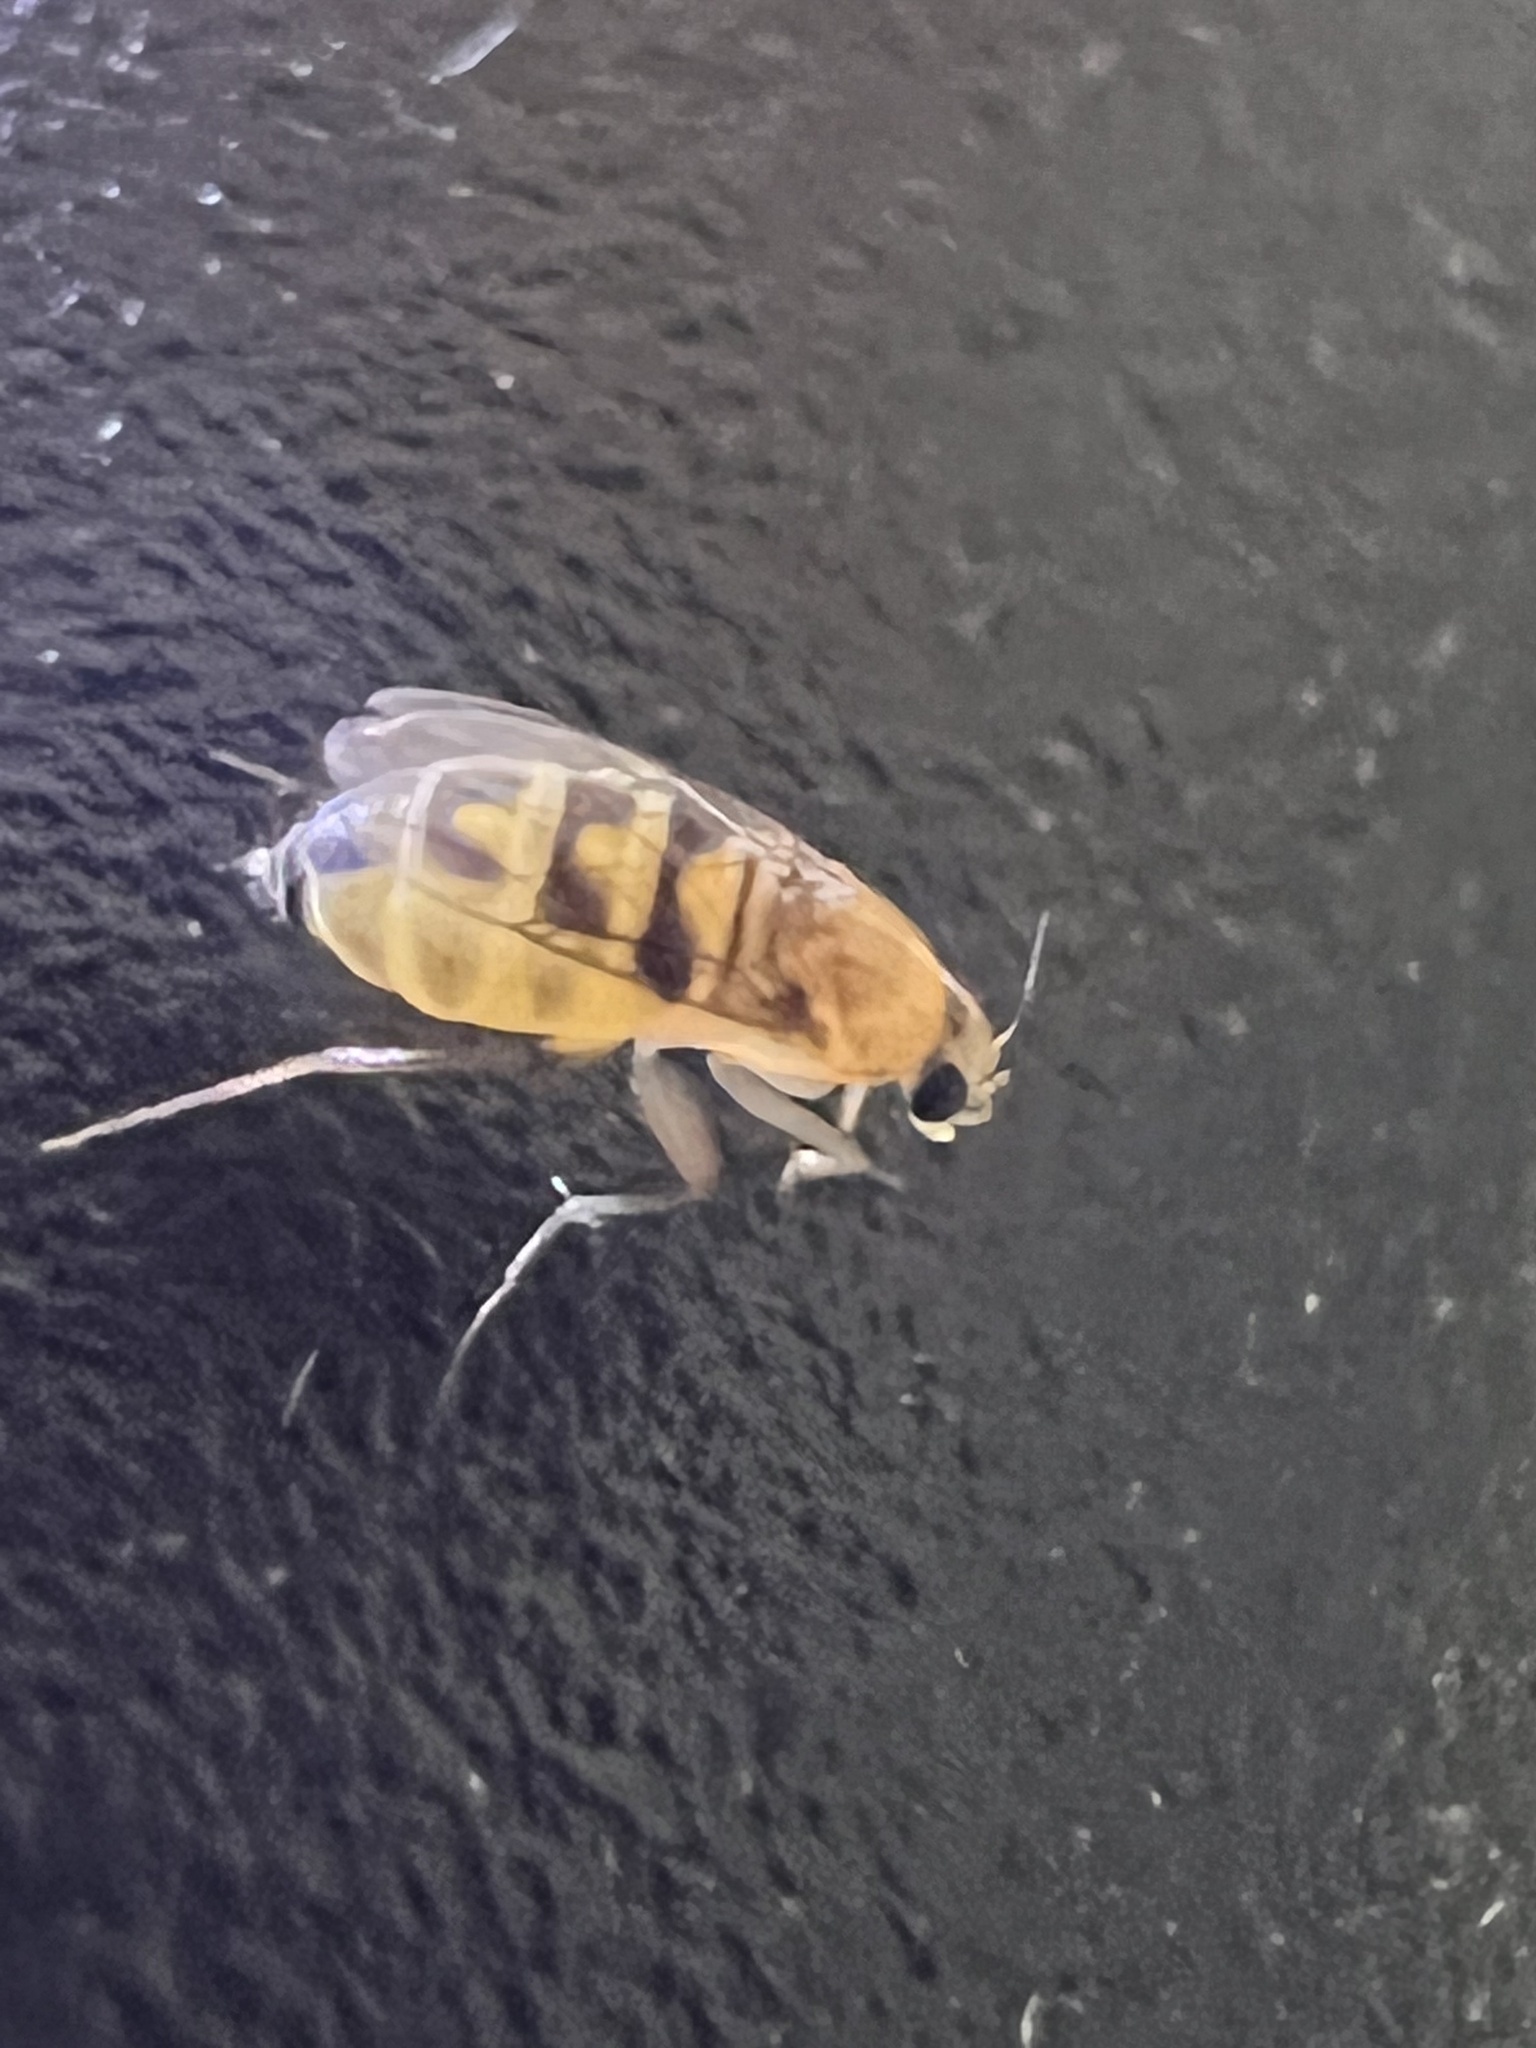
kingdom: Animalia
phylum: Arthropoda
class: Insecta
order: Diptera
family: Phoridae
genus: Megaselia
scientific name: Megaselia scalaris
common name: Scuttle fly
